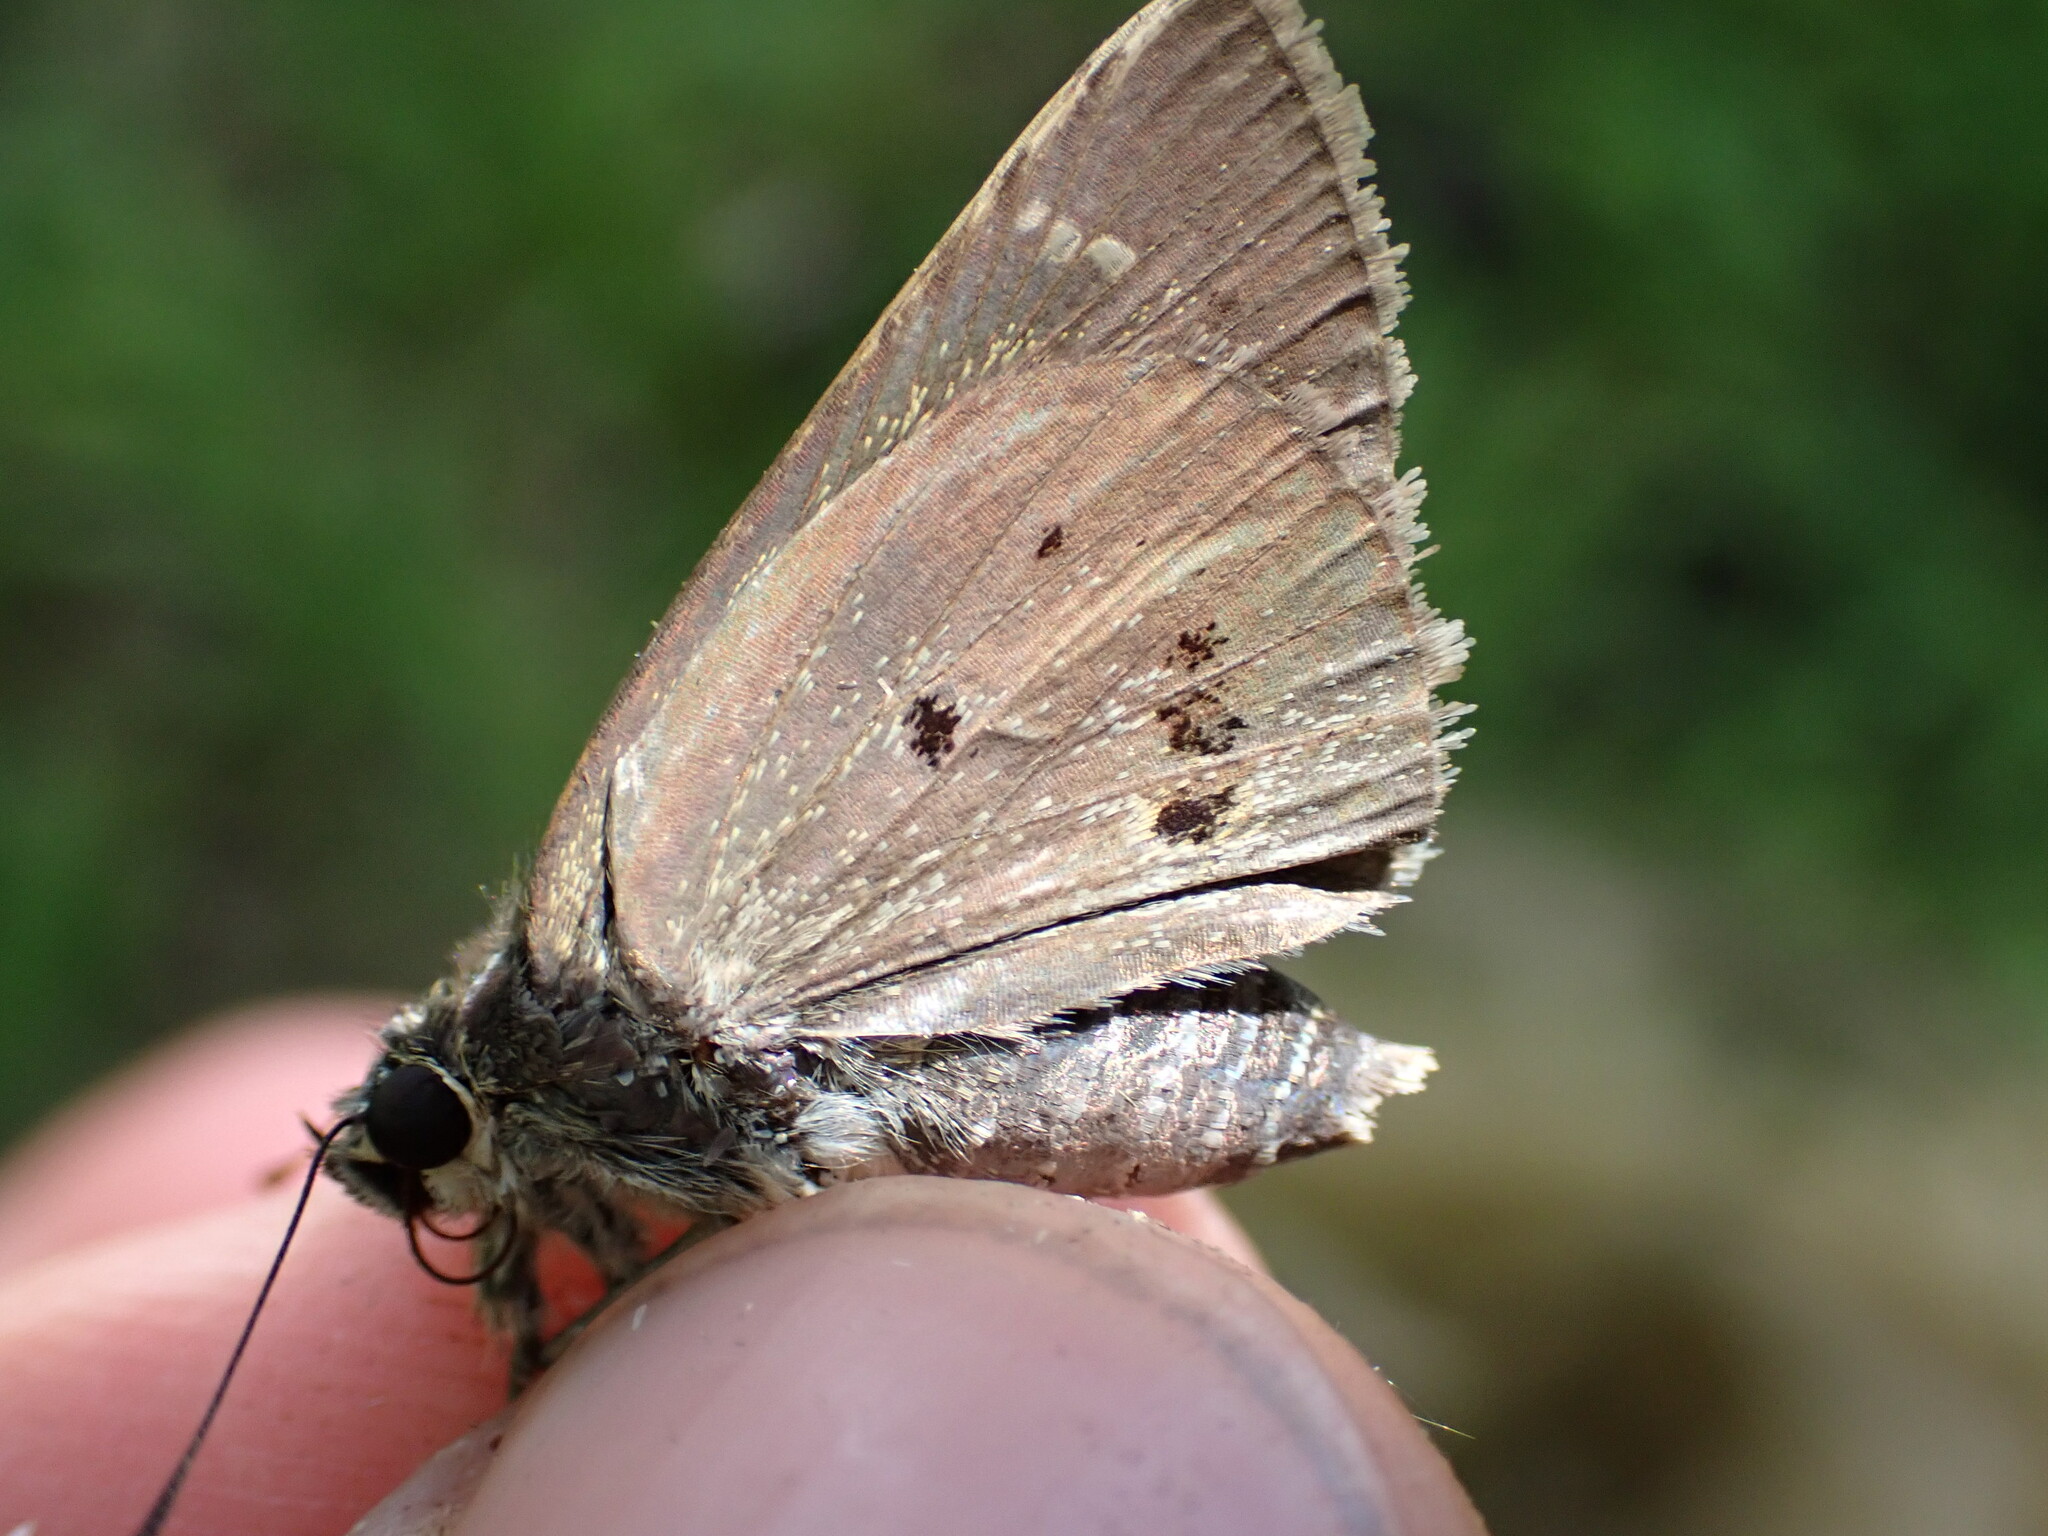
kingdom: Animalia
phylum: Arthropoda
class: Insecta
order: Lepidoptera
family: Hesperiidae
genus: Suastus
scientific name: Suastus gremius
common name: Indian palm bob
